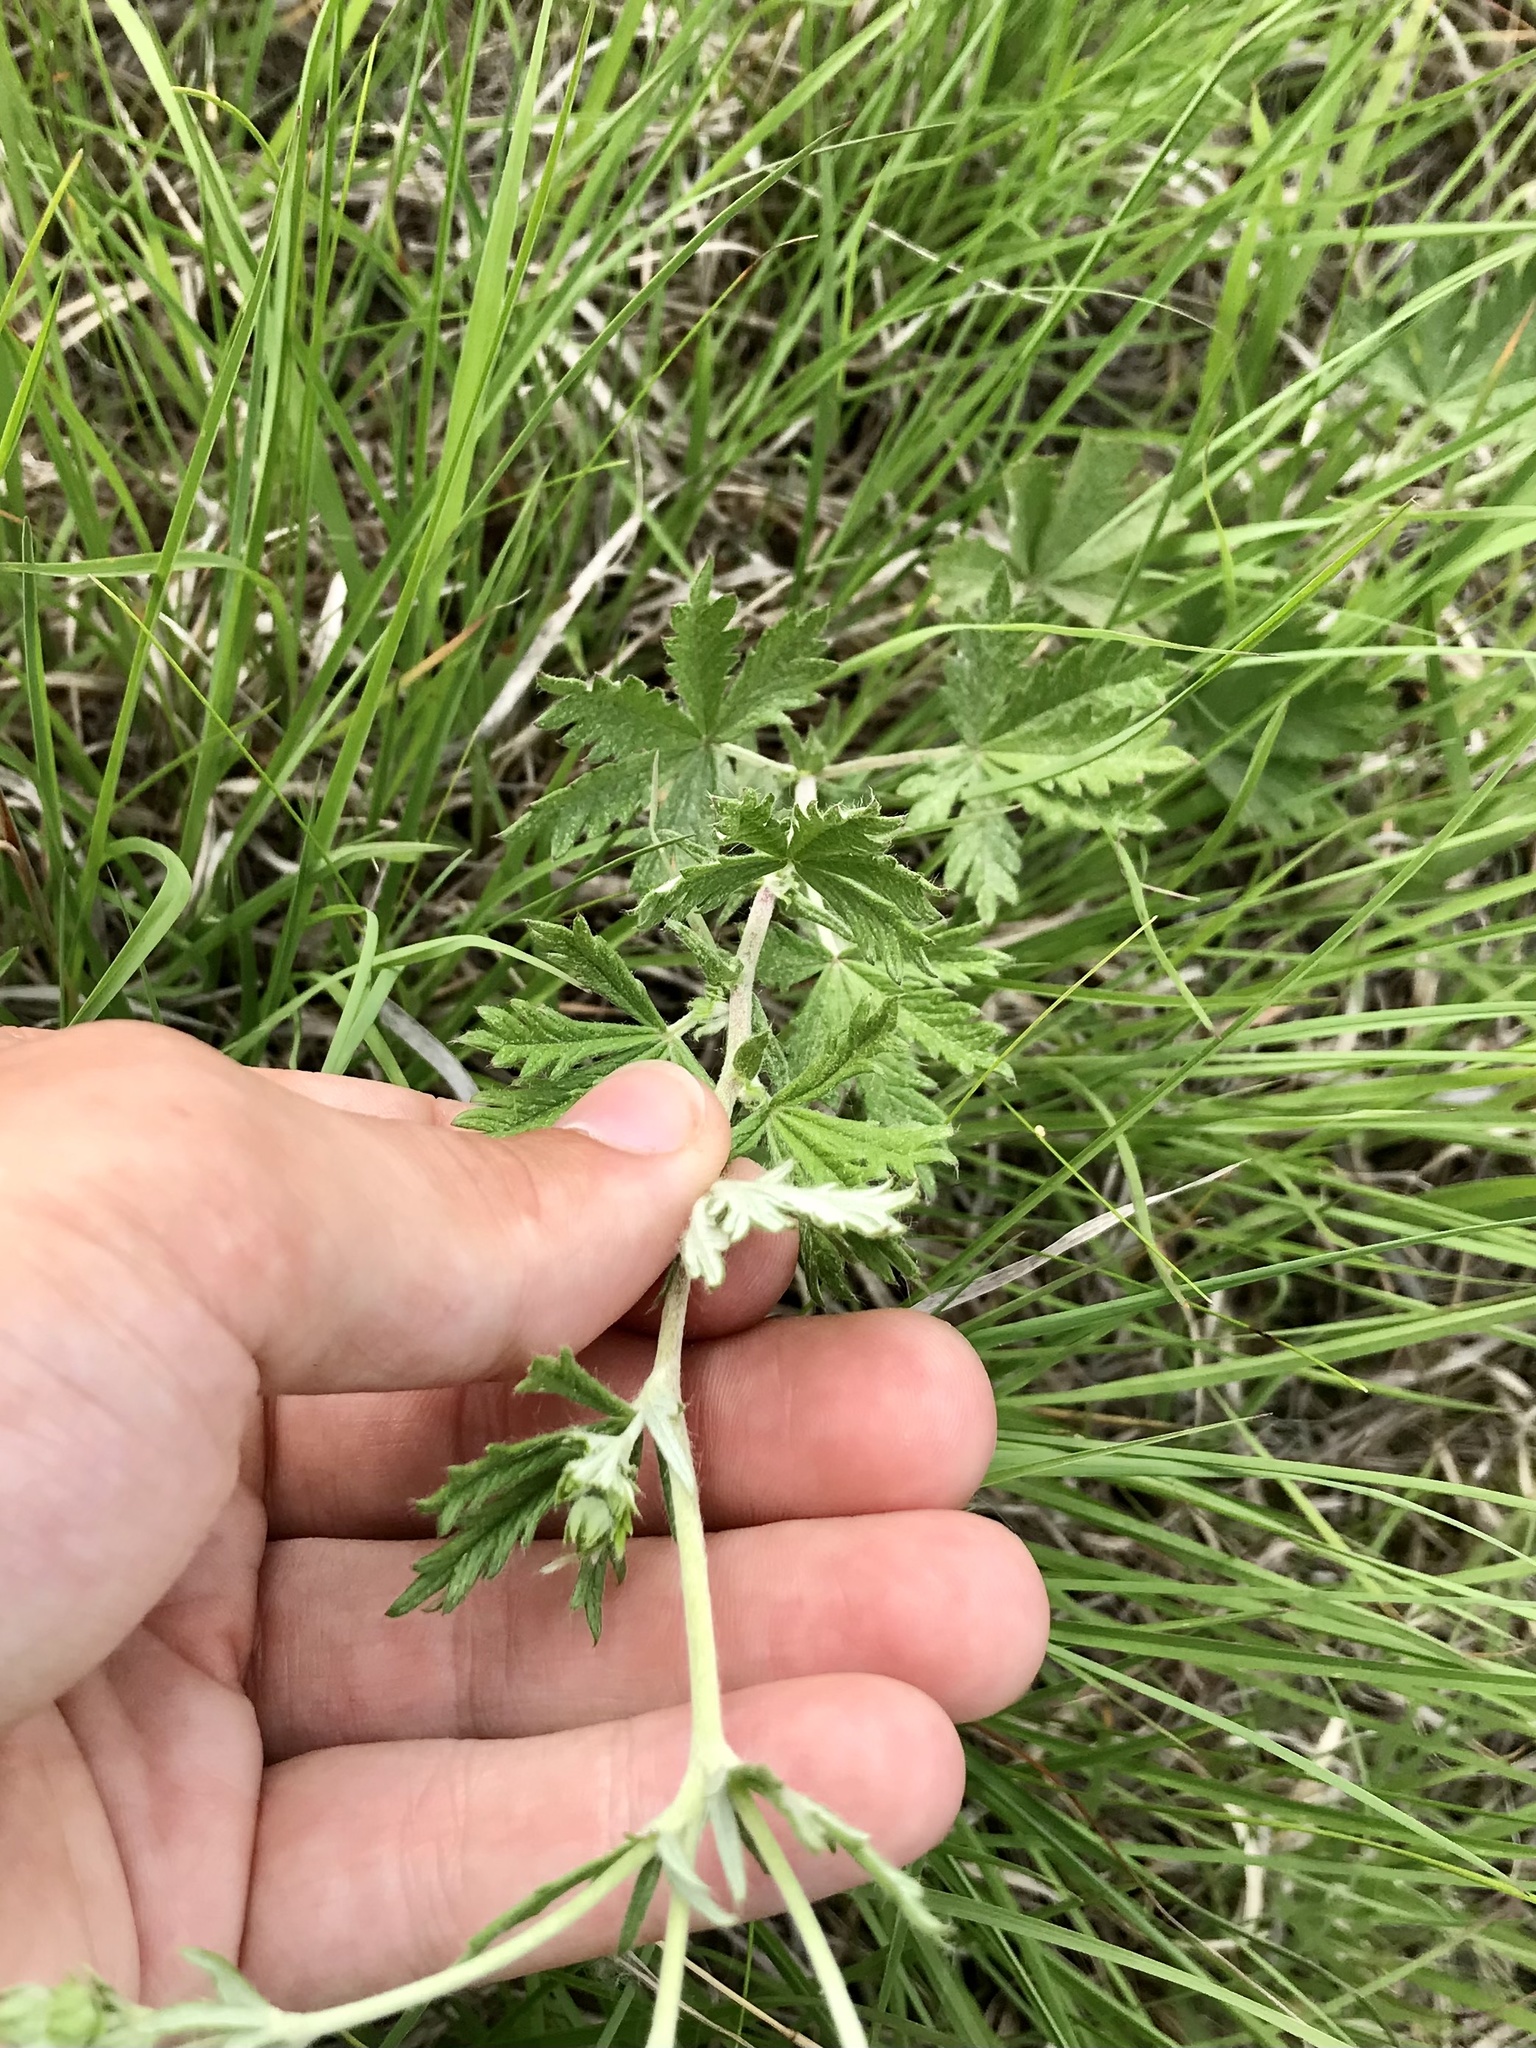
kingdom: Plantae
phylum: Tracheophyta
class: Magnoliopsida
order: Rosales
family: Rosaceae
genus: Potentilla
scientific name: Potentilla argentea
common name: Hoary cinquefoil
